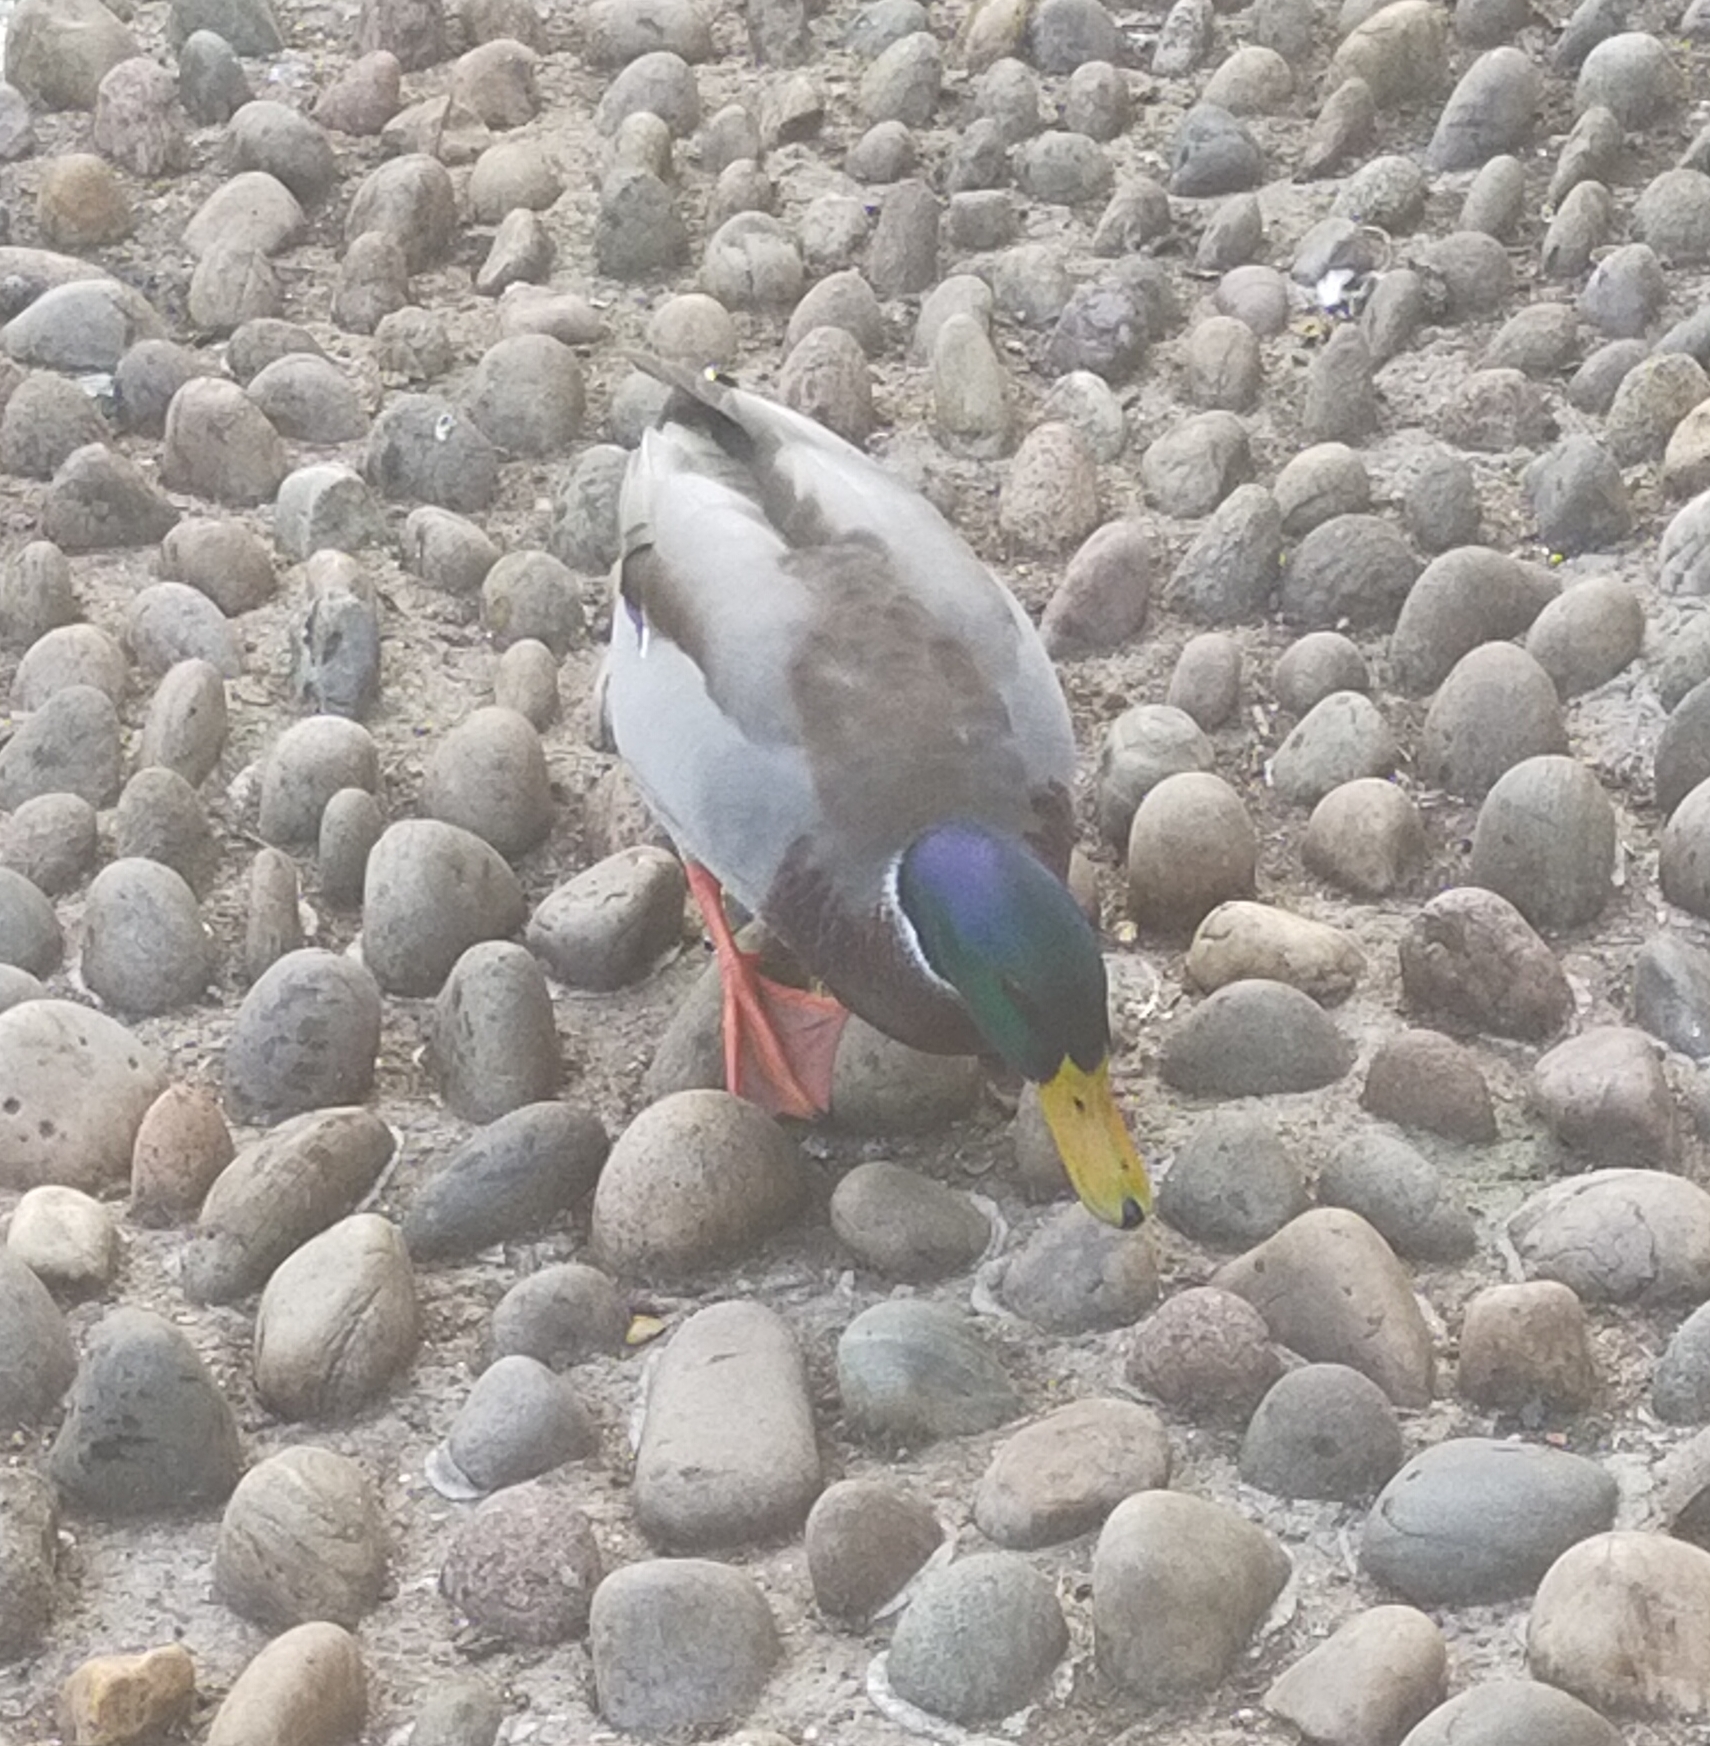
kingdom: Animalia
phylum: Chordata
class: Aves
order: Anseriformes
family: Anatidae
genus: Anas
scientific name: Anas platyrhynchos
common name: Mallard
